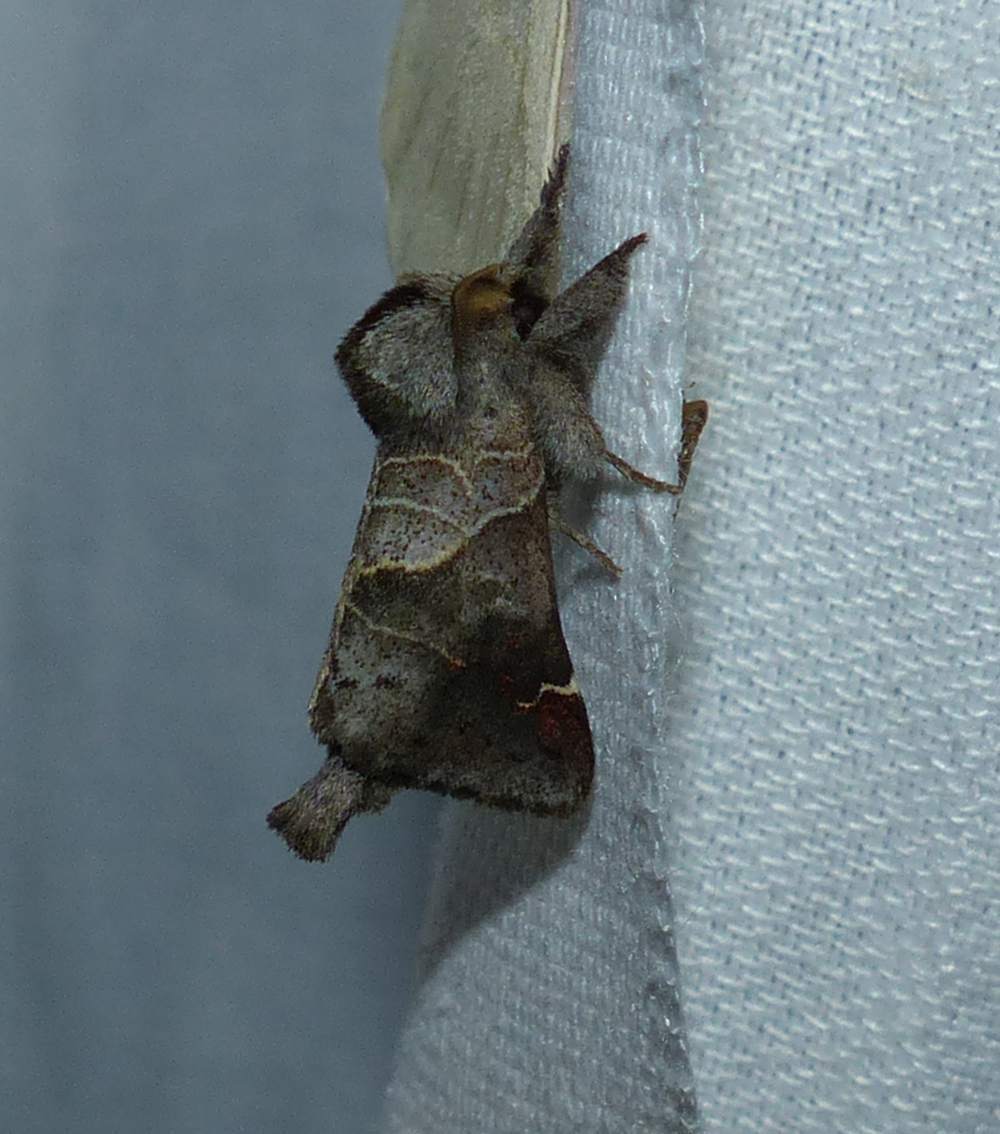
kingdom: Animalia
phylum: Arthropoda
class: Insecta
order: Lepidoptera
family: Notodontidae
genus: Clostera
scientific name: Clostera apicalis
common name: Apical prominent
